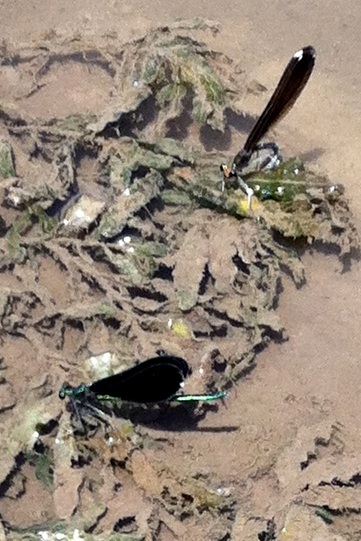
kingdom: Animalia
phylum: Arthropoda
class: Insecta
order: Odonata
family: Calopterygidae
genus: Calopteryx
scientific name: Calopteryx maculata
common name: Ebony jewelwing
